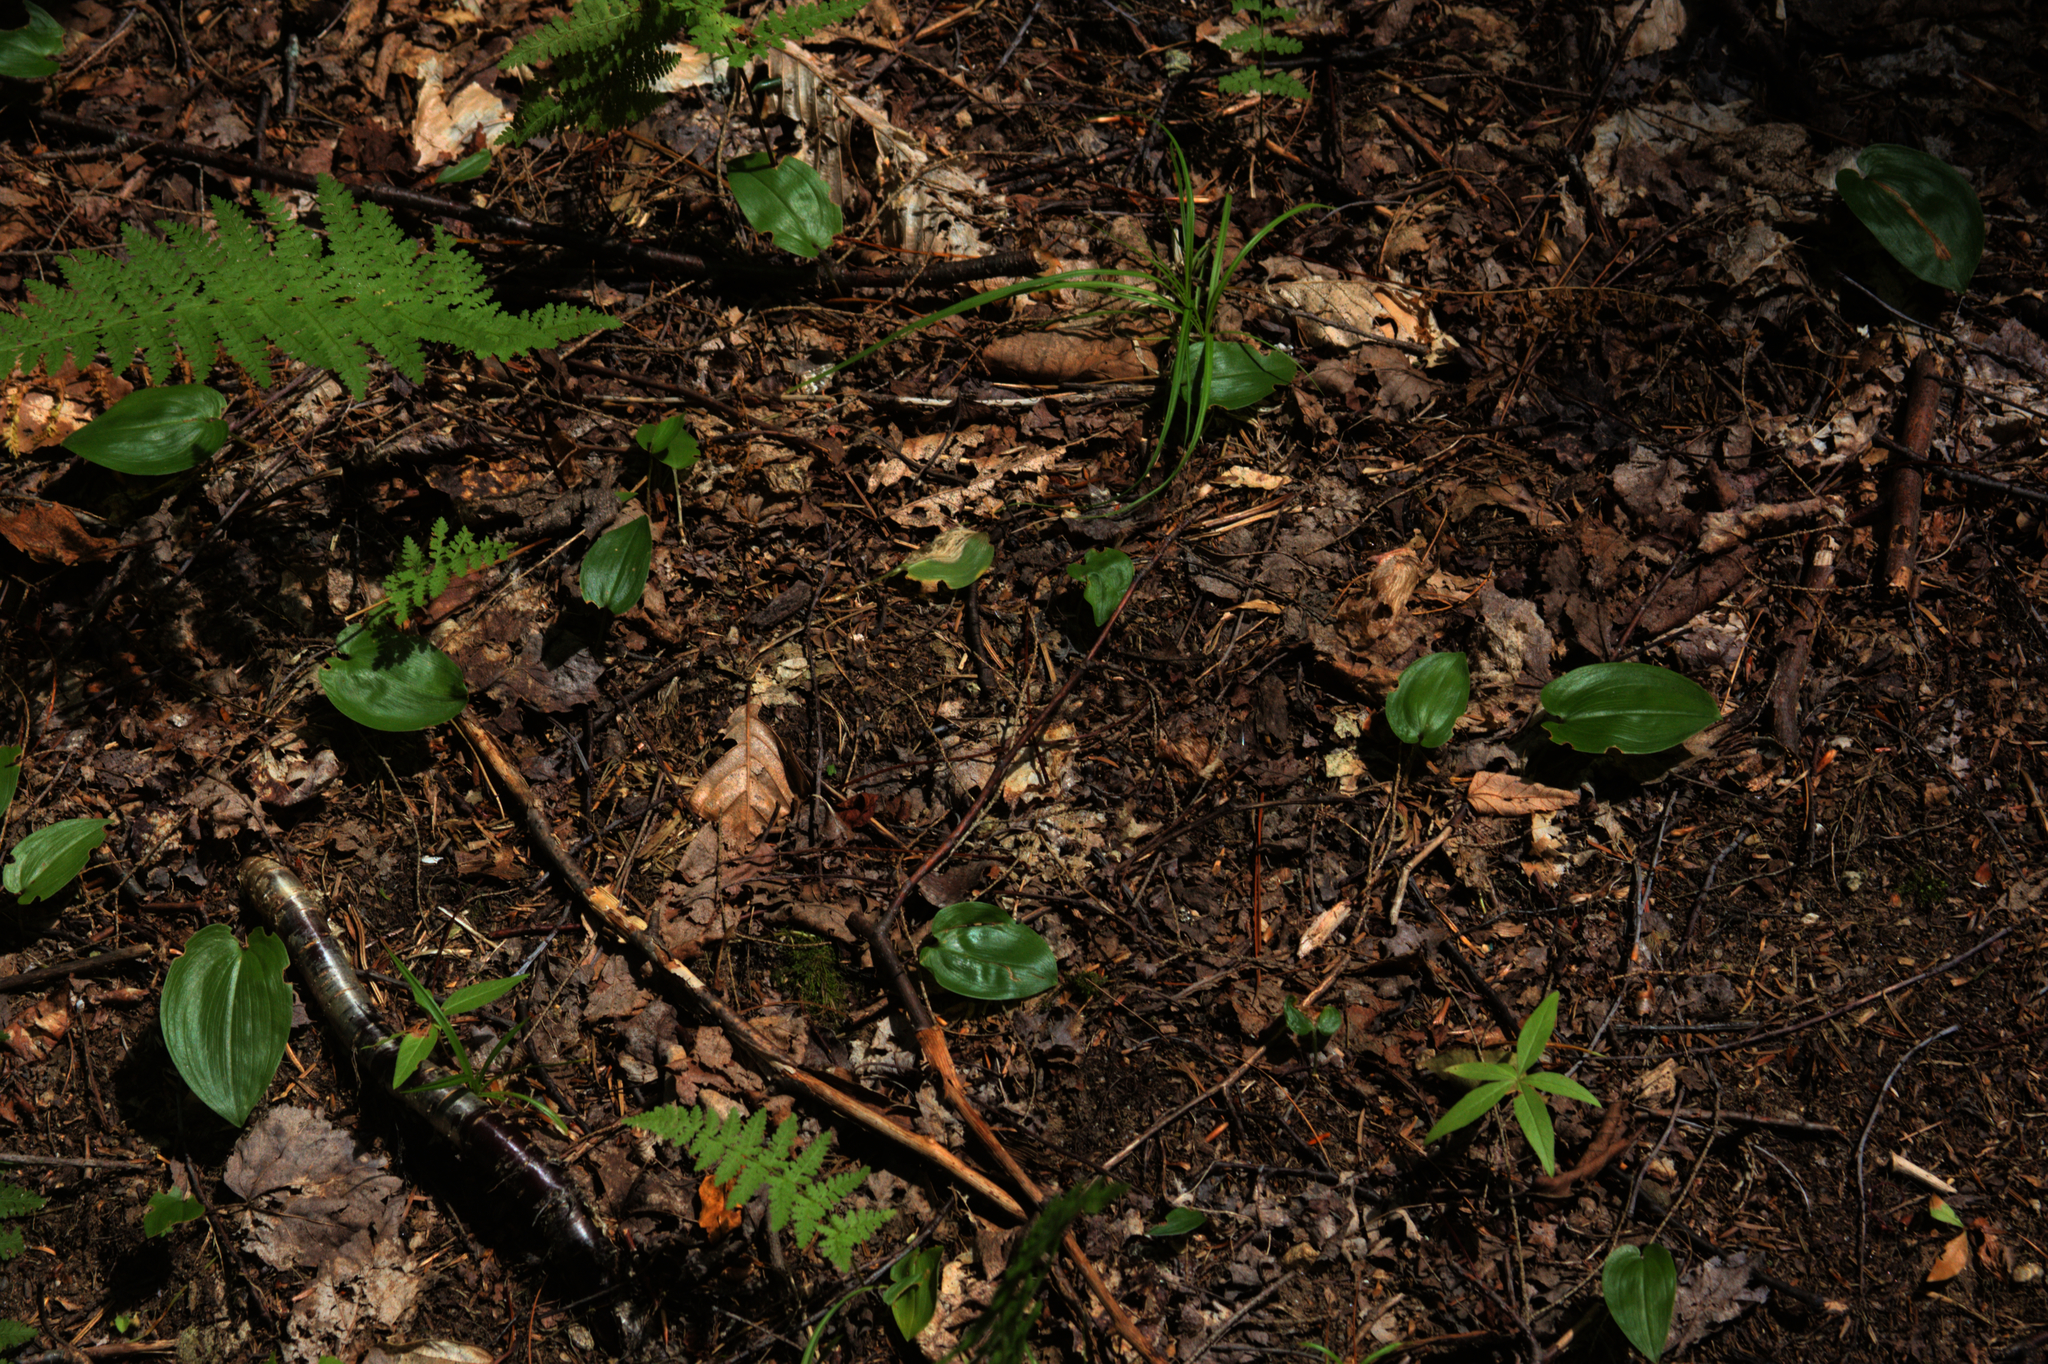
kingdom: Plantae
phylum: Tracheophyta
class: Polypodiopsida
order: Polypodiales
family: Dennstaedtiaceae
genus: Sitobolium
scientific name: Sitobolium punctilobum
